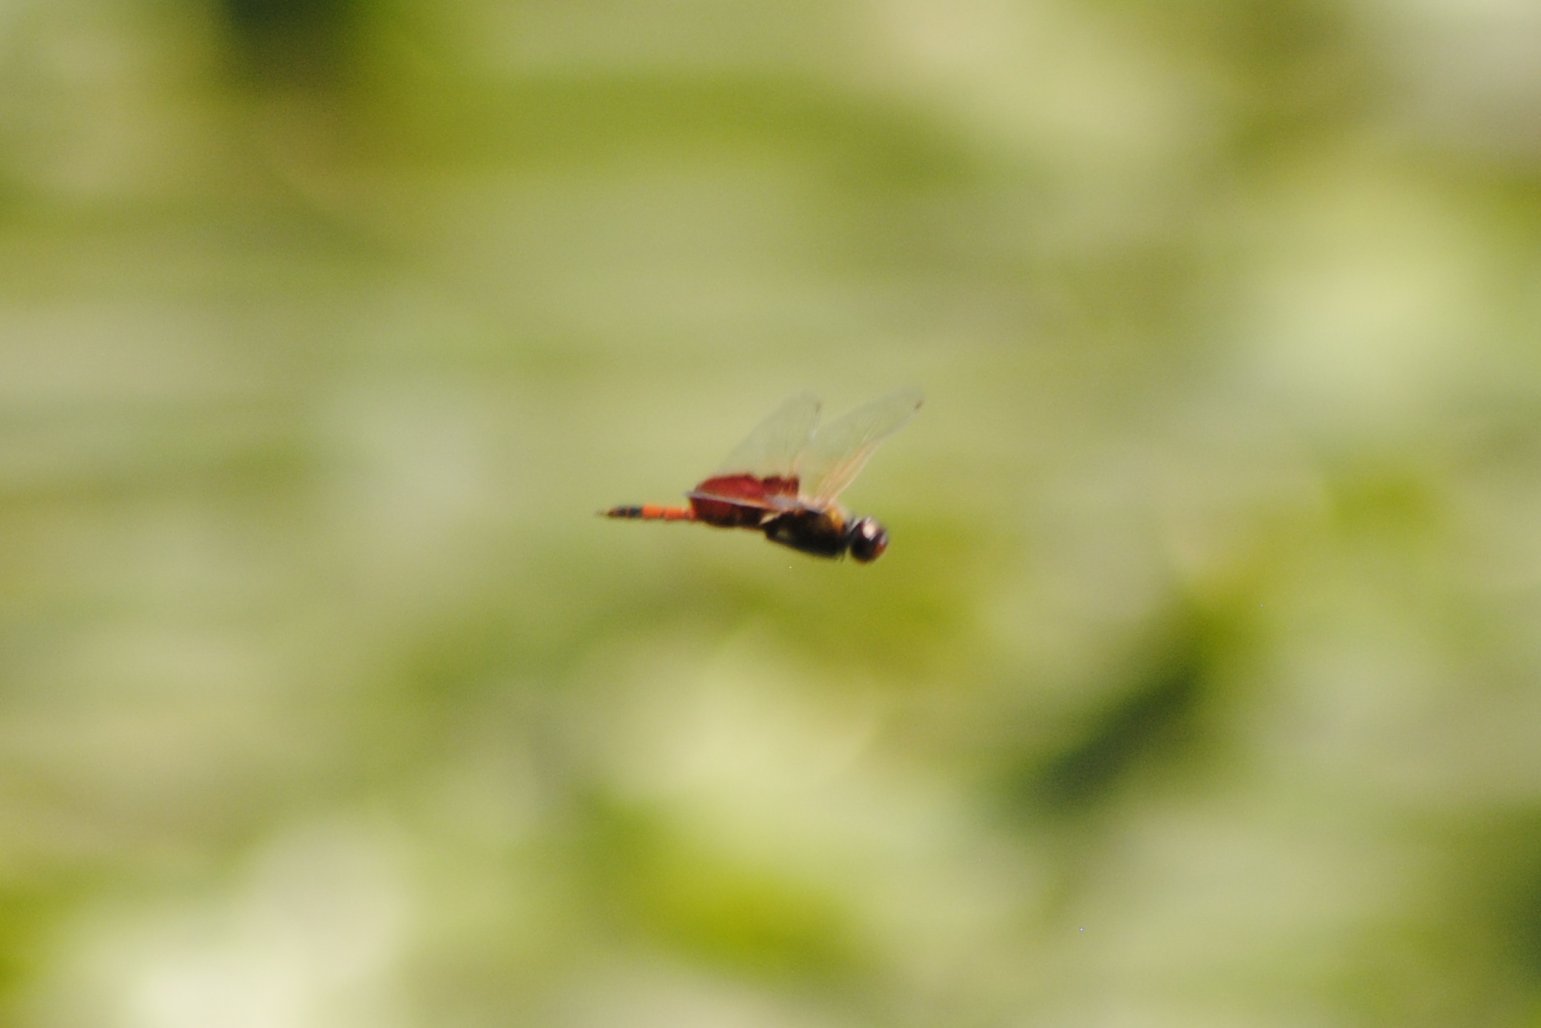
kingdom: Animalia
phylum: Arthropoda
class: Insecta
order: Odonata
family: Libellulidae
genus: Tramea
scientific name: Tramea carolina
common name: Carolina saddlebags
